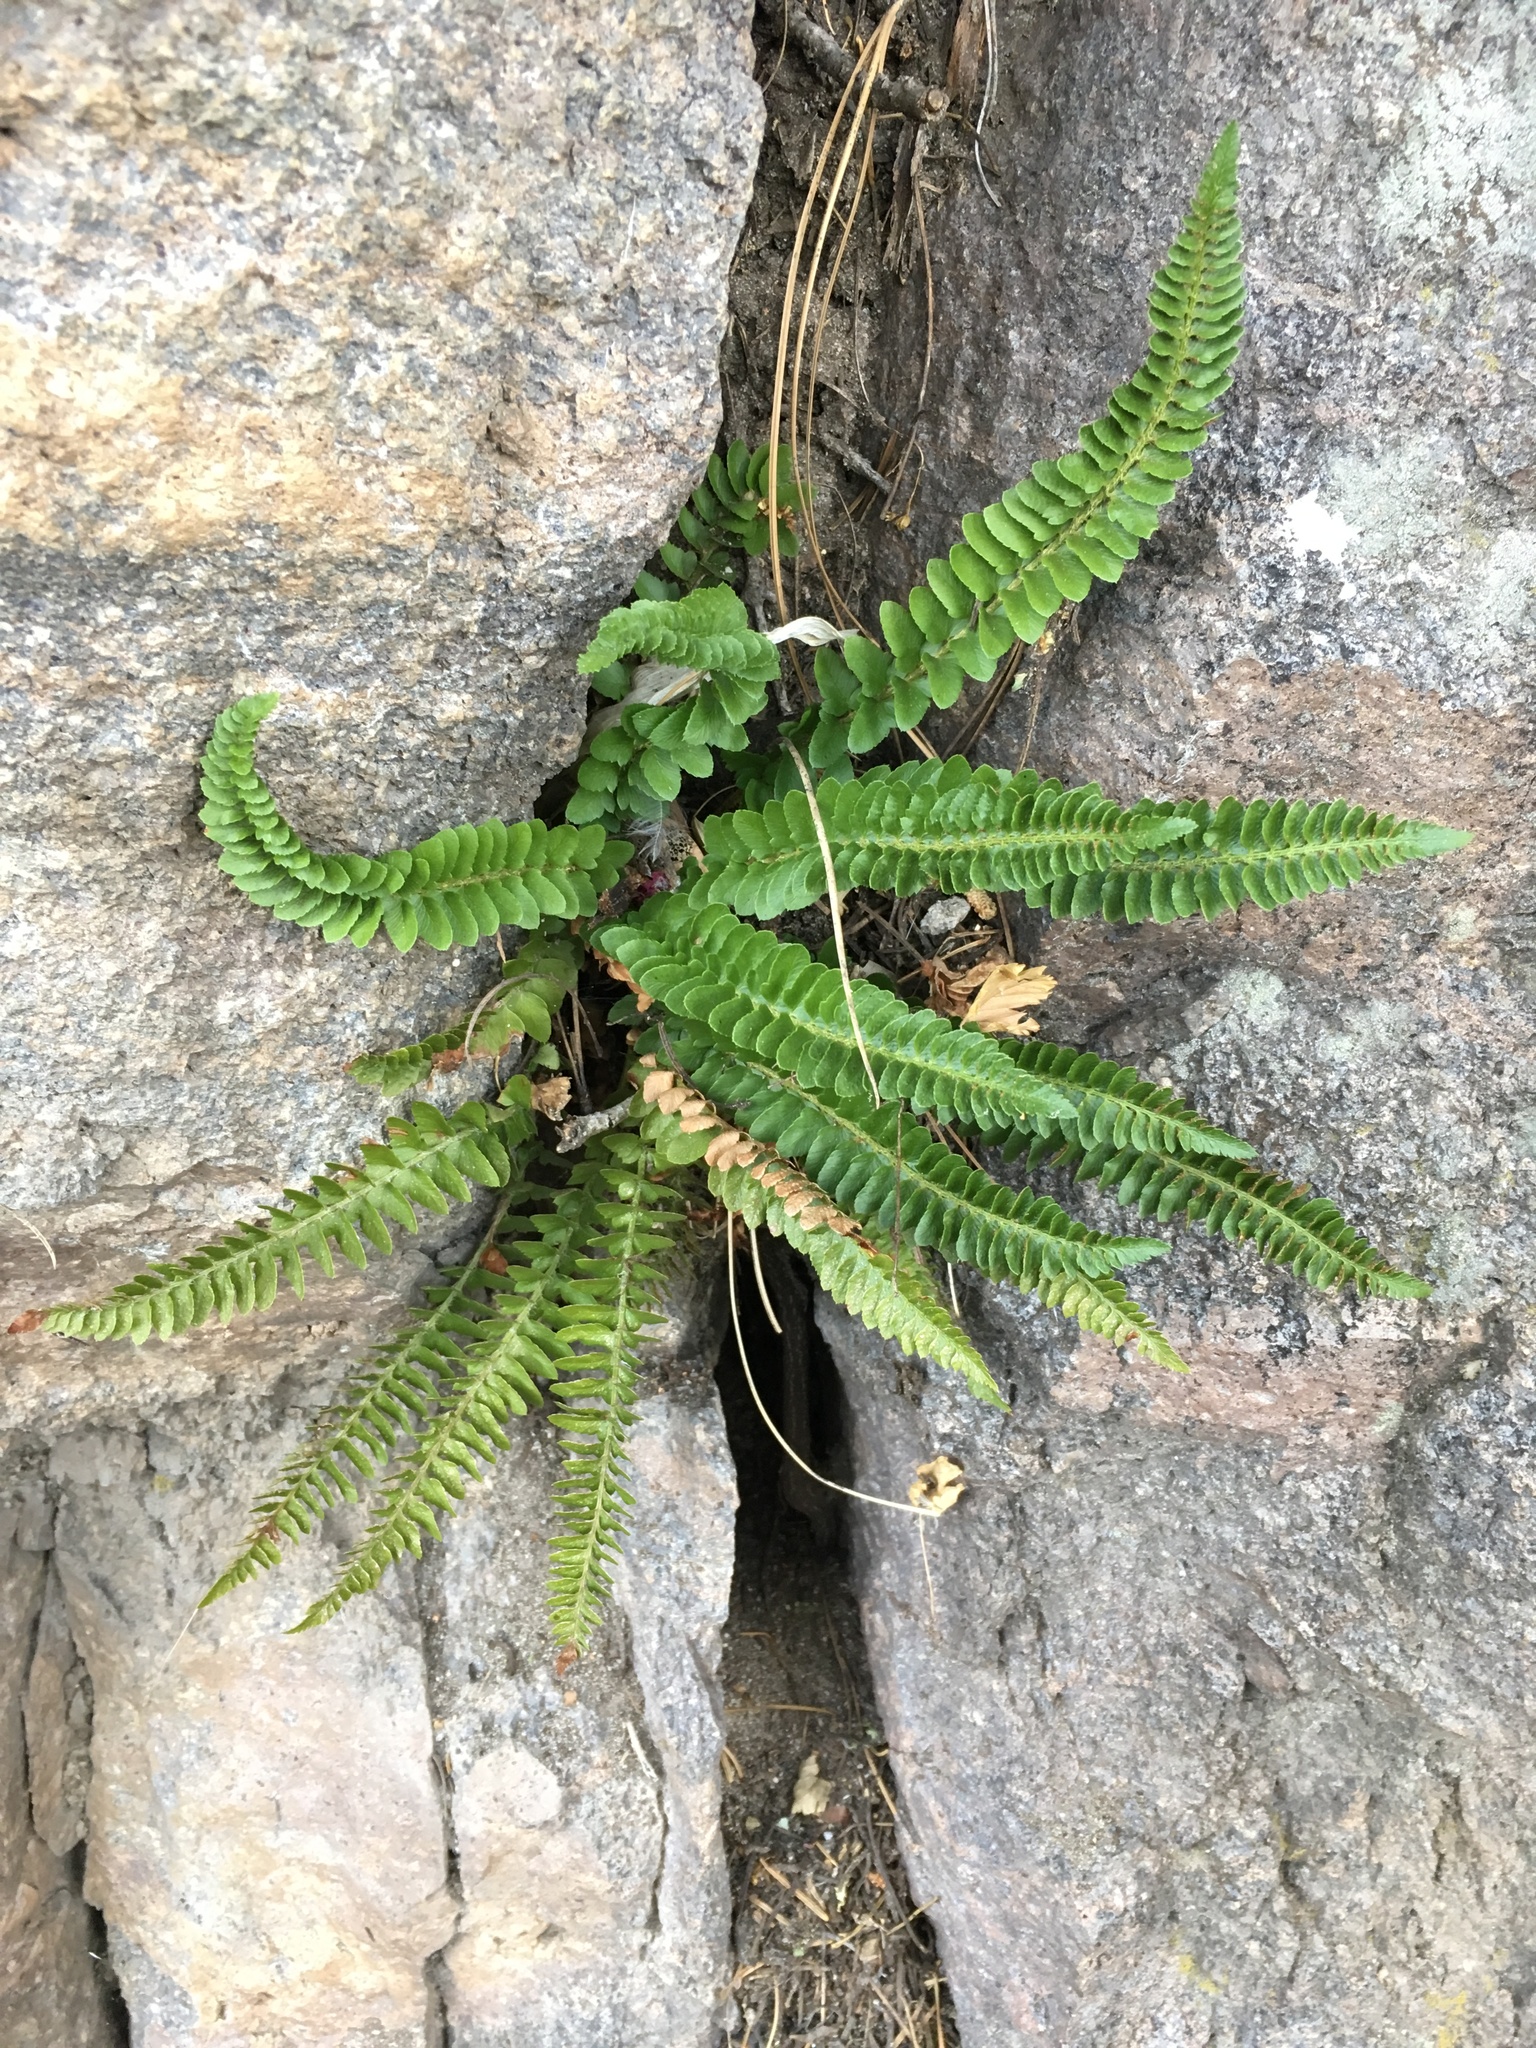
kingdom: Plantae
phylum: Tracheophyta
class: Polypodiopsida
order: Polypodiales
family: Dryopteridaceae
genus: Polystichum
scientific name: Polystichum scopulinum
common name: Eaton's shield fern
